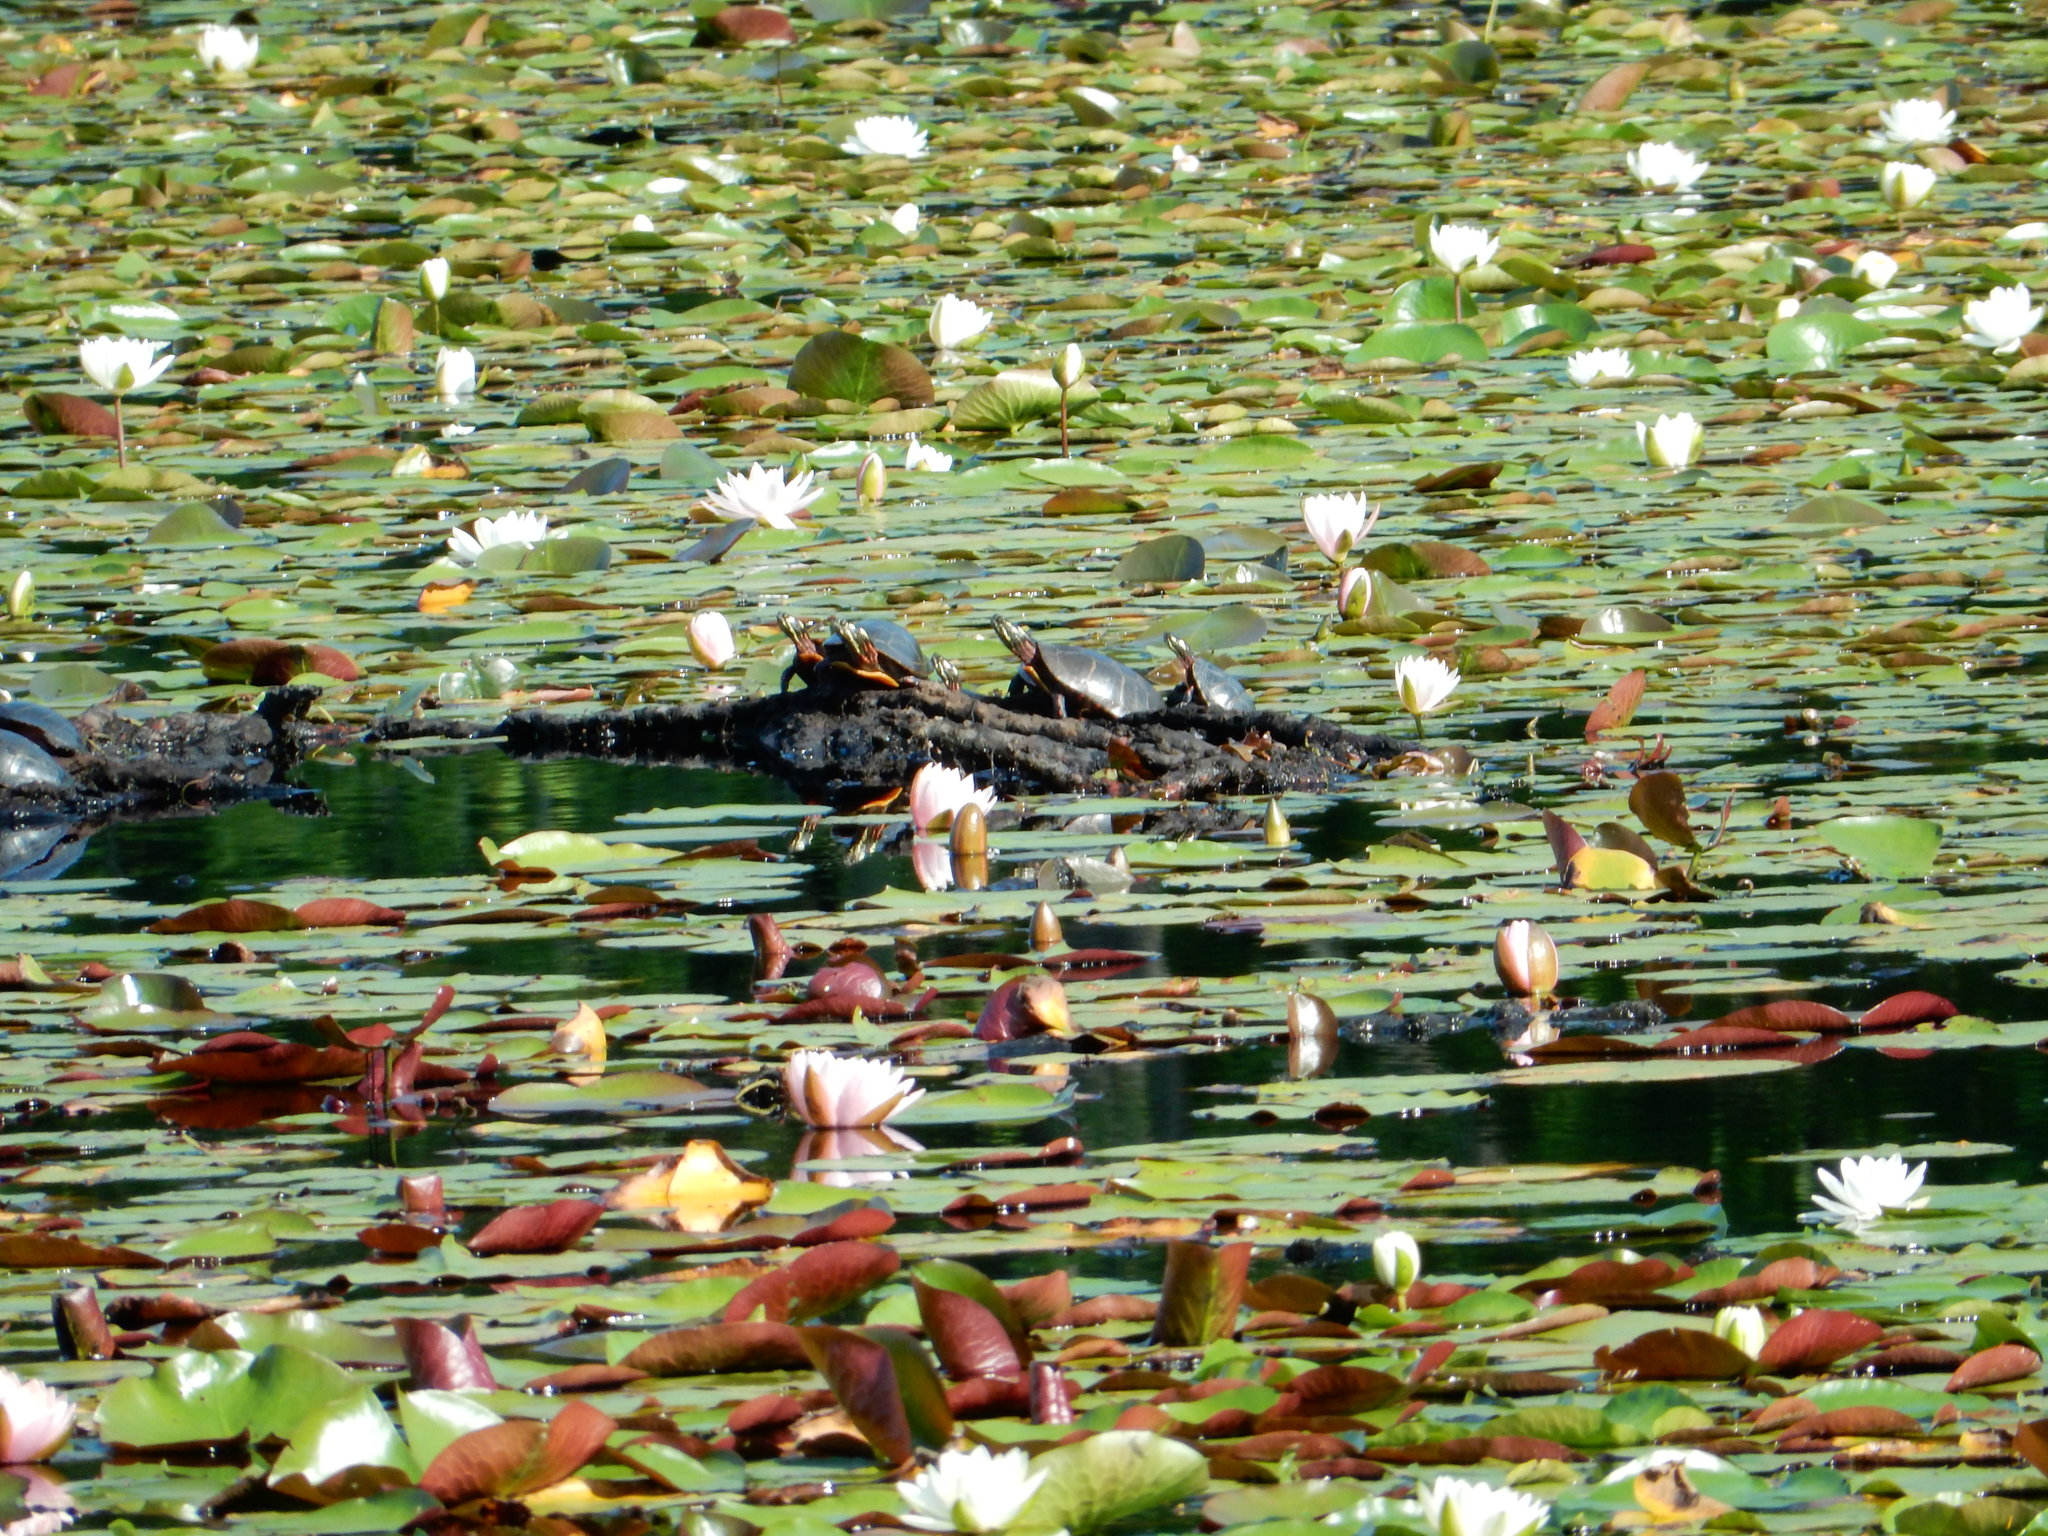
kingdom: Animalia
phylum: Chordata
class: Testudines
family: Emydidae
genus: Chrysemys
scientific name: Chrysemys picta
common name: Painted turtle
